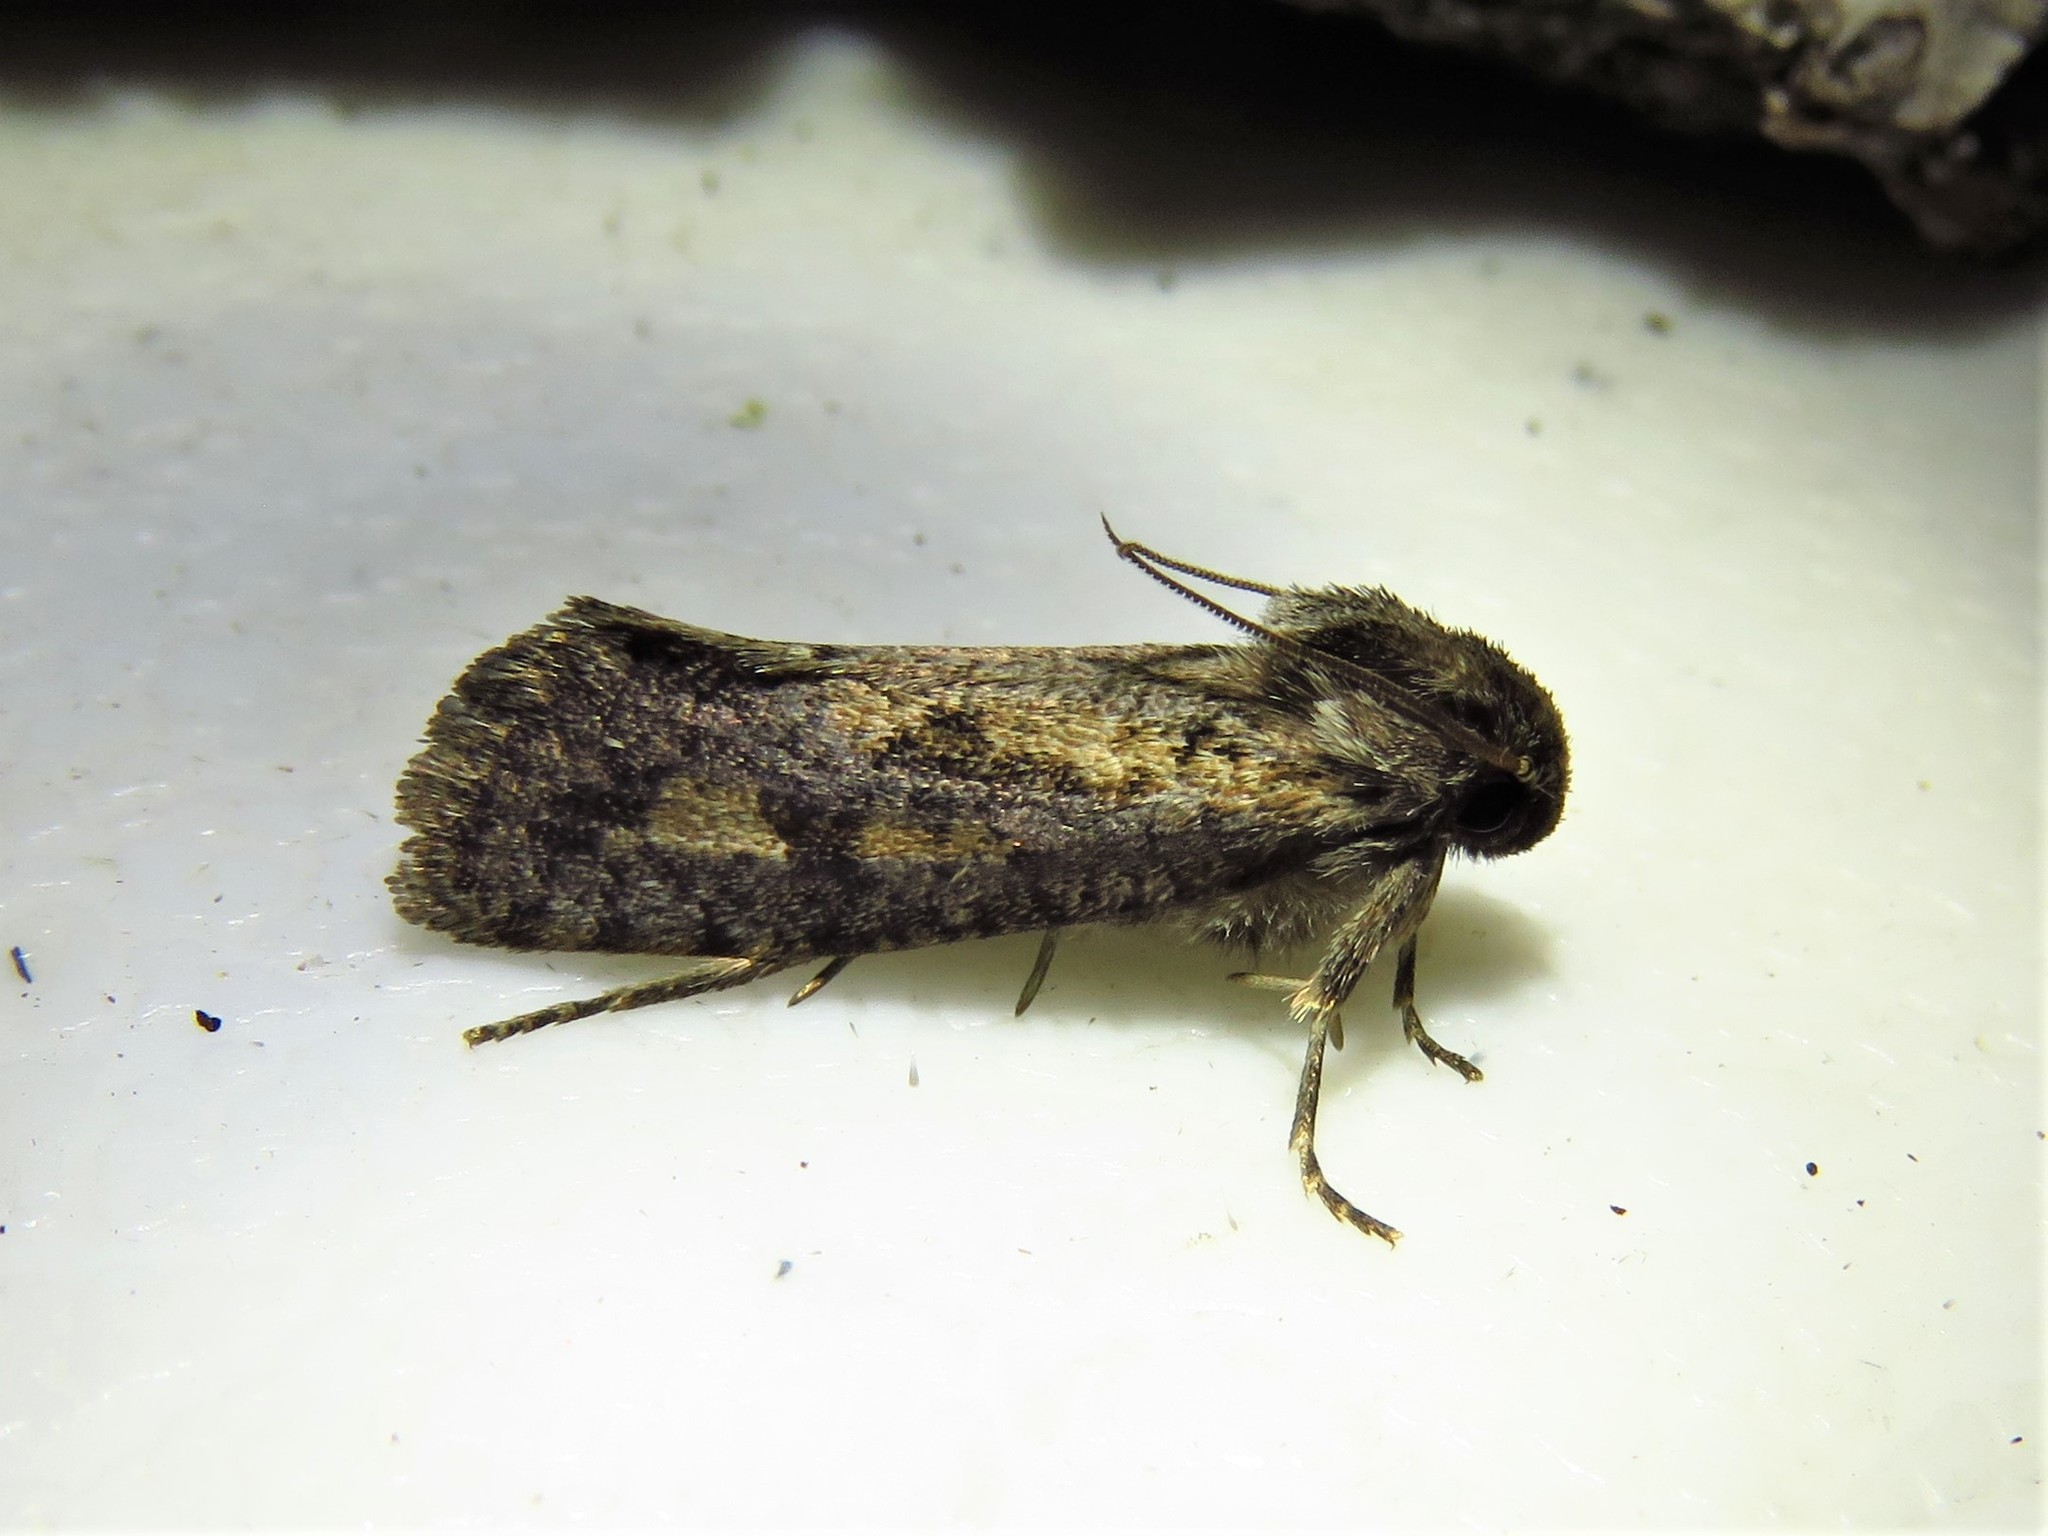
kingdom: Animalia
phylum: Arthropoda
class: Insecta
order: Lepidoptera
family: Tineidae
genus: Acrolophus
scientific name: Acrolophus popeanella
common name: Clemens' grass tubeworm moth
